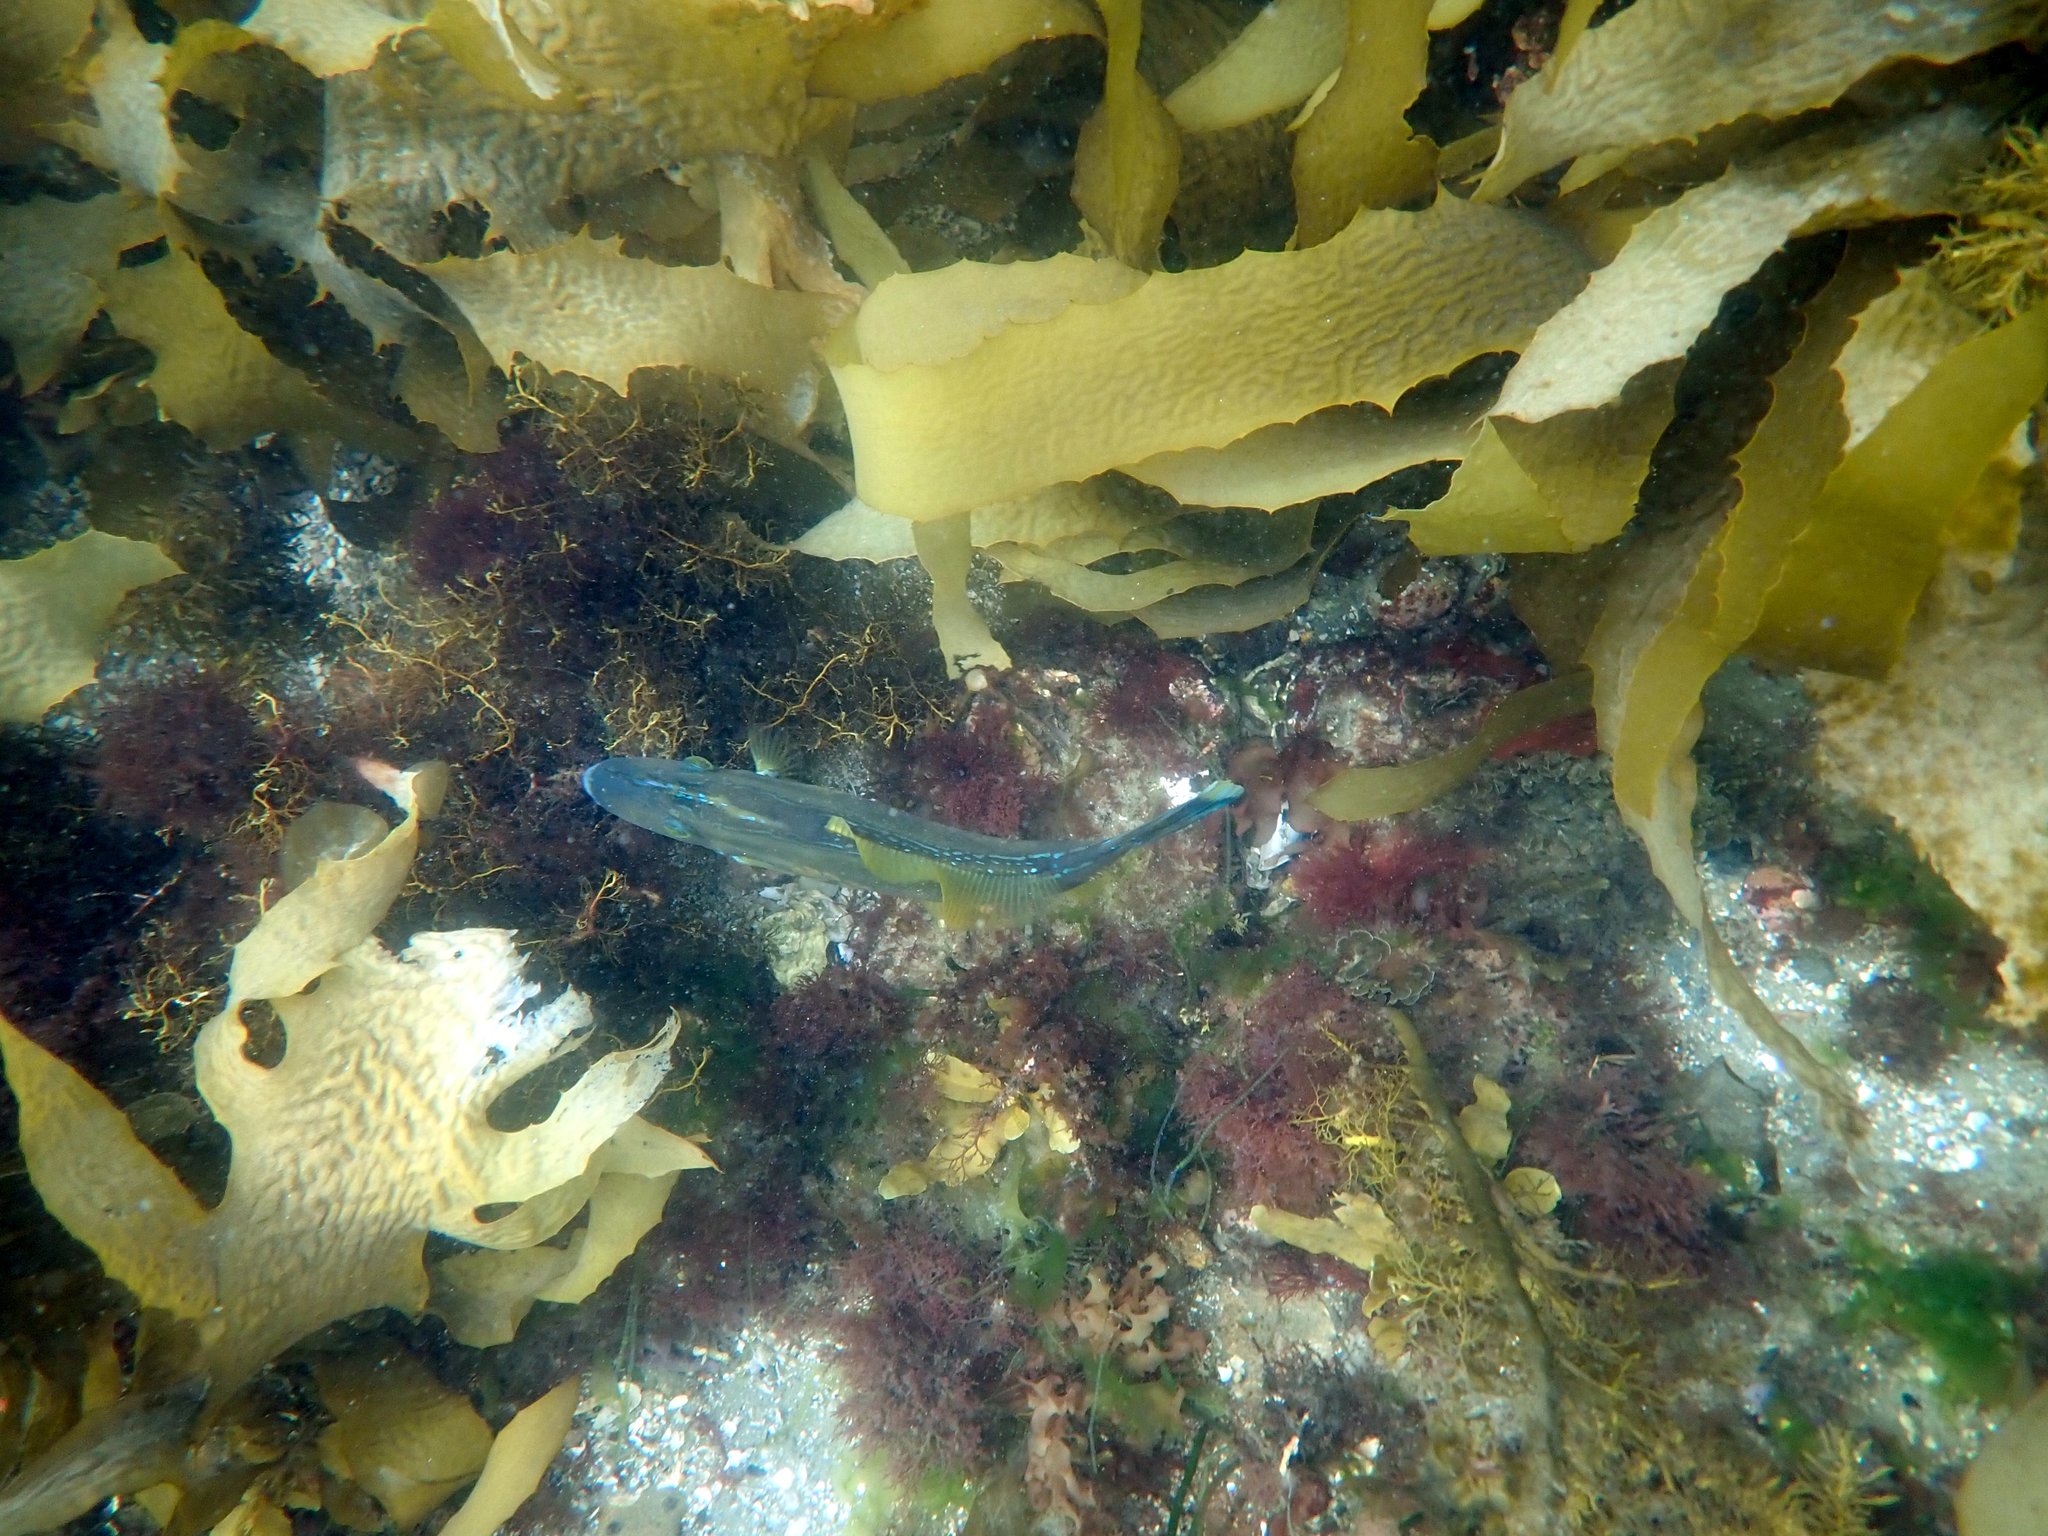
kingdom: Animalia
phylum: Chordata
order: Tetraodontiformes
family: Monacanthidae
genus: Meuschenia
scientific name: Meuschenia freycineti
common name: Freycinet's leatherjacket
